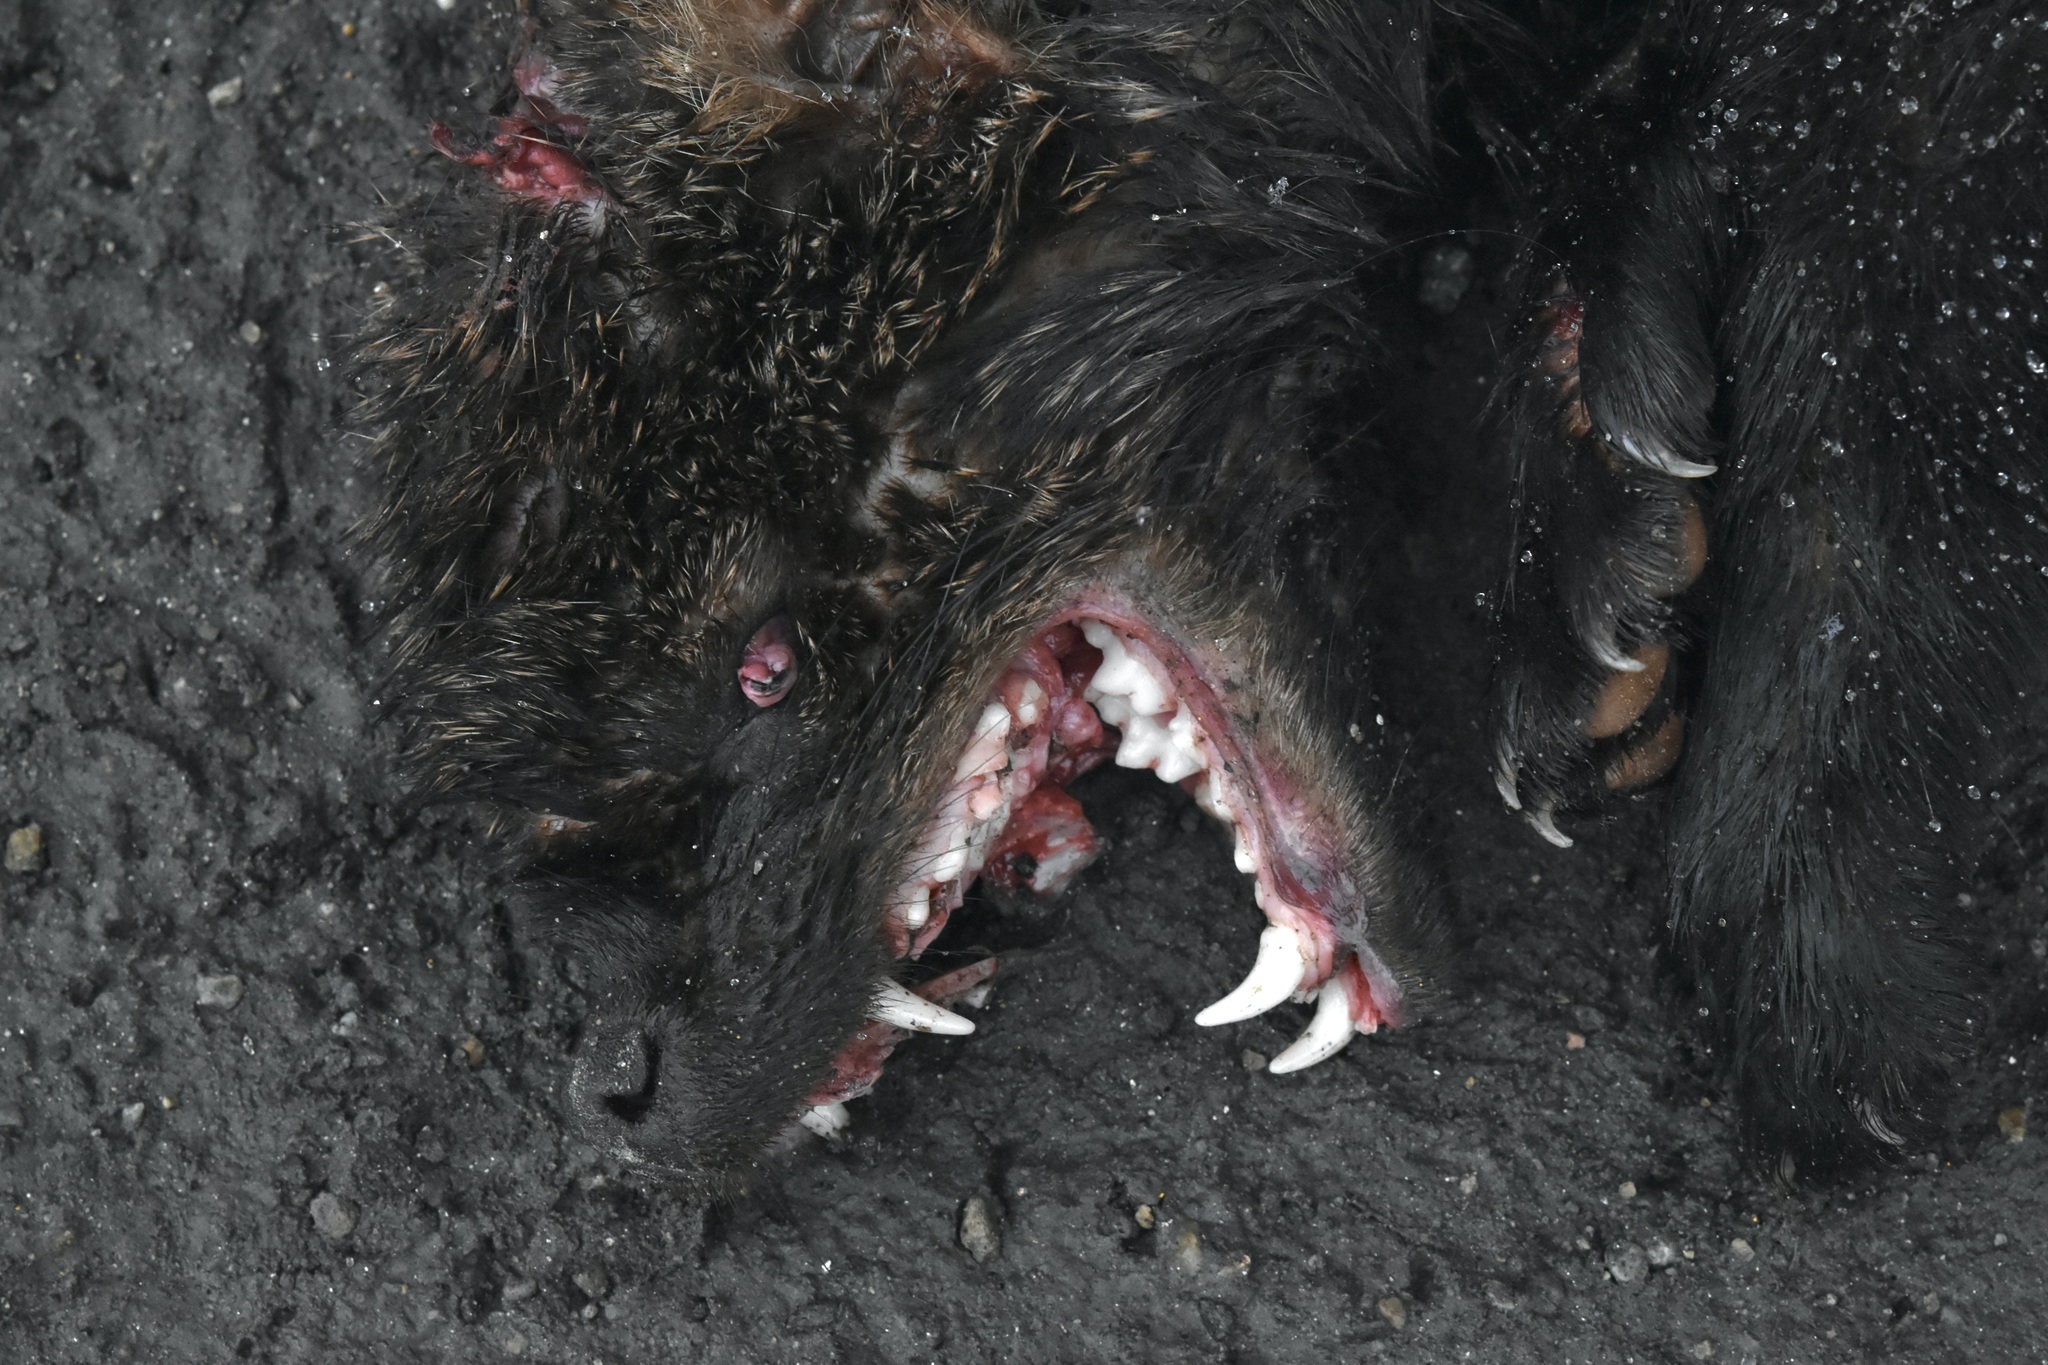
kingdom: Animalia
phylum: Chordata
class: Mammalia
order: Carnivora
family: Mustelidae
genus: Pekania
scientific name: Pekania pennanti
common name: Fisher
